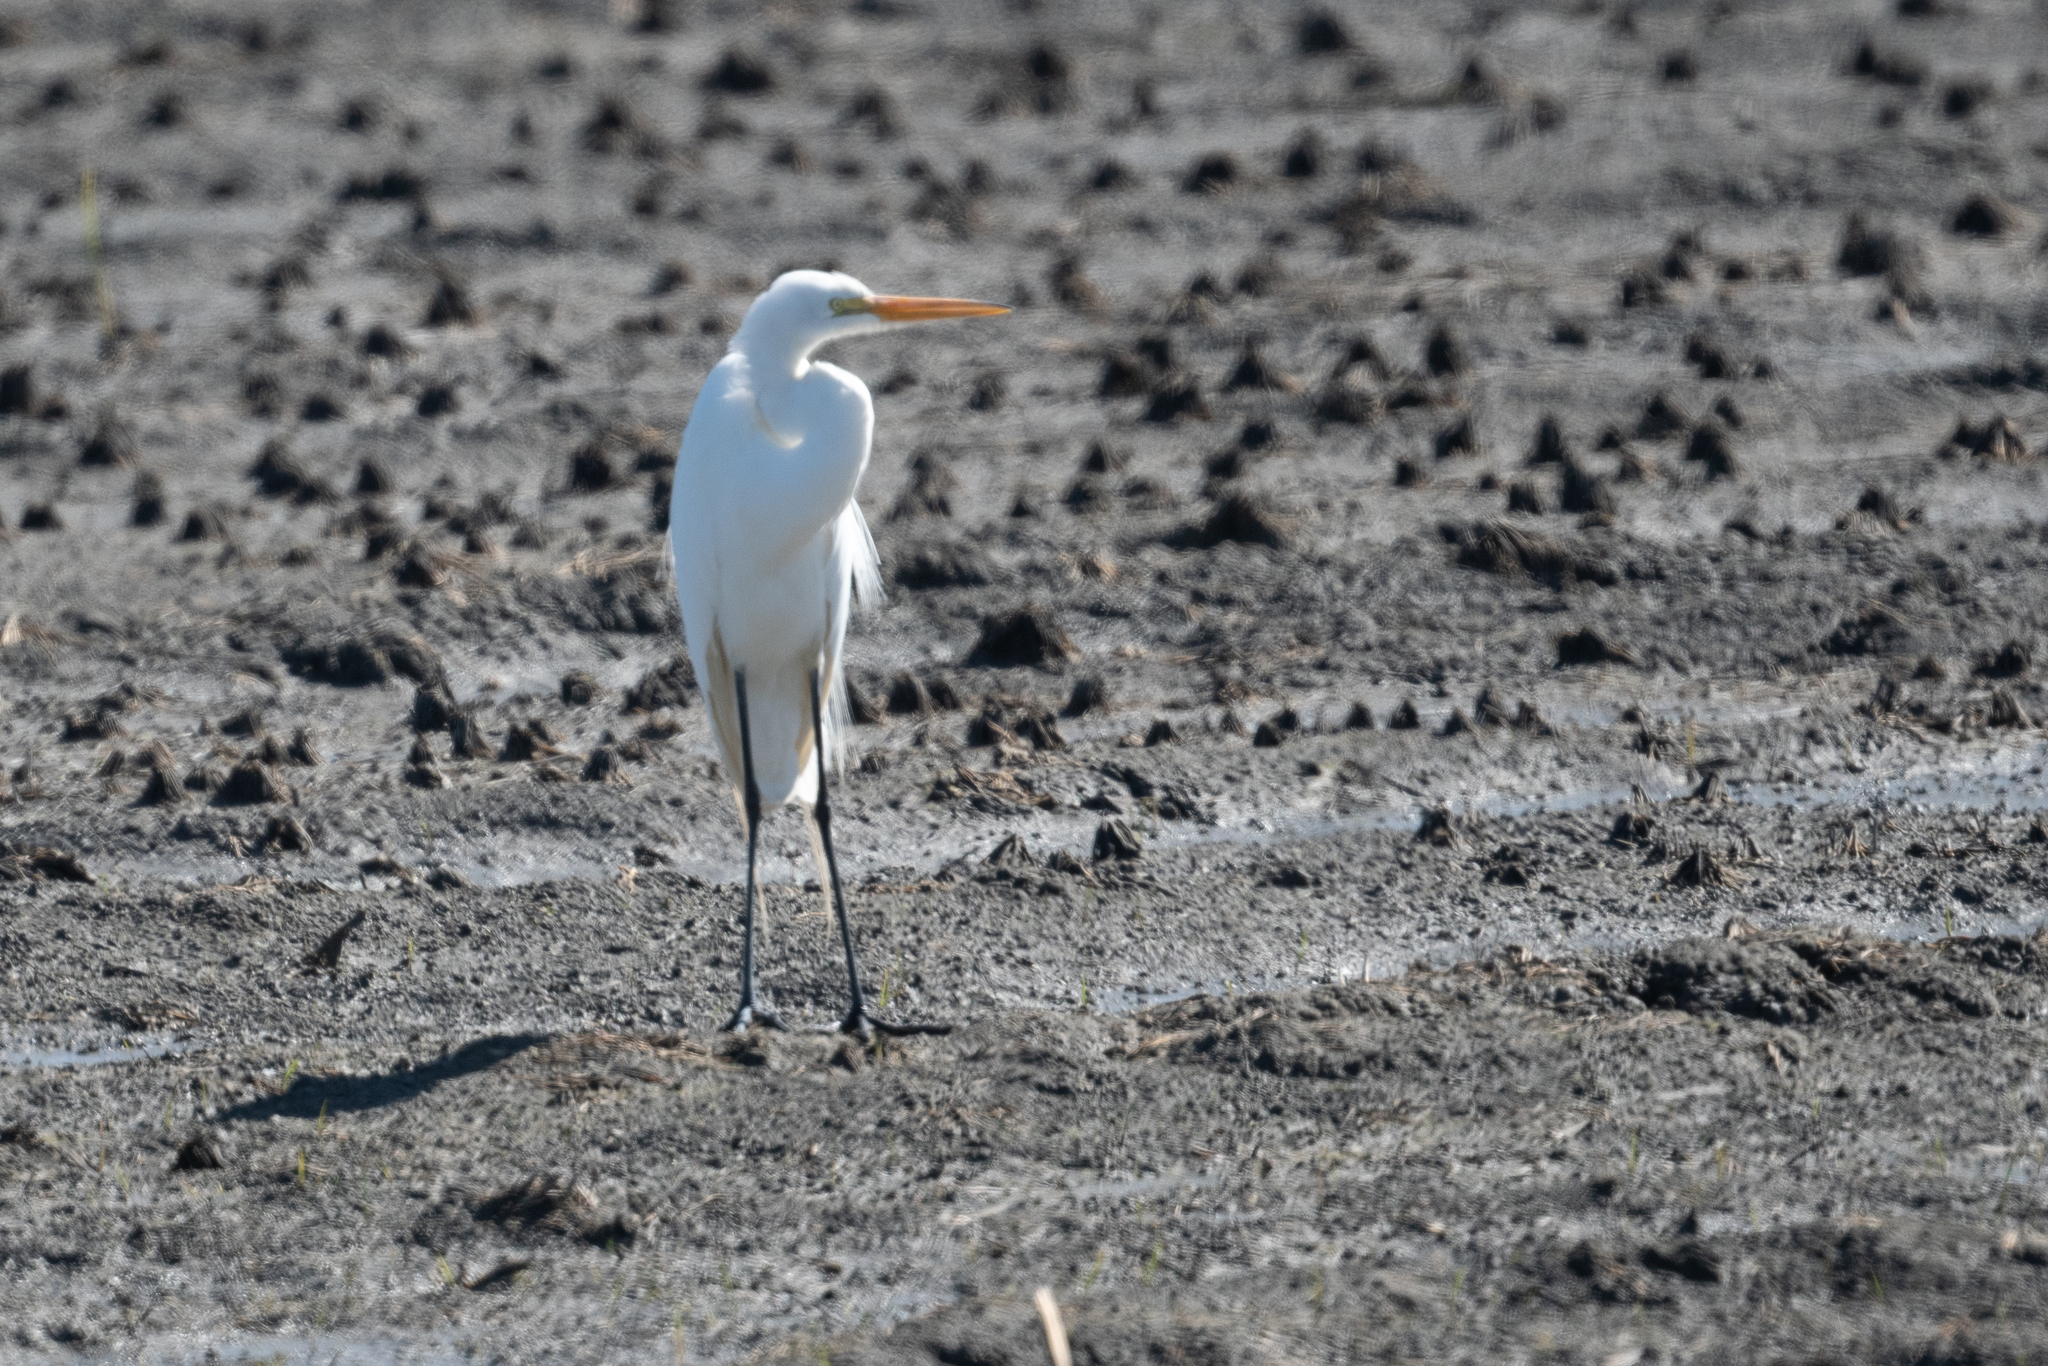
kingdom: Animalia
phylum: Chordata
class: Aves
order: Pelecaniformes
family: Ardeidae
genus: Ardea
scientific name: Ardea alba
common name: Great egret
